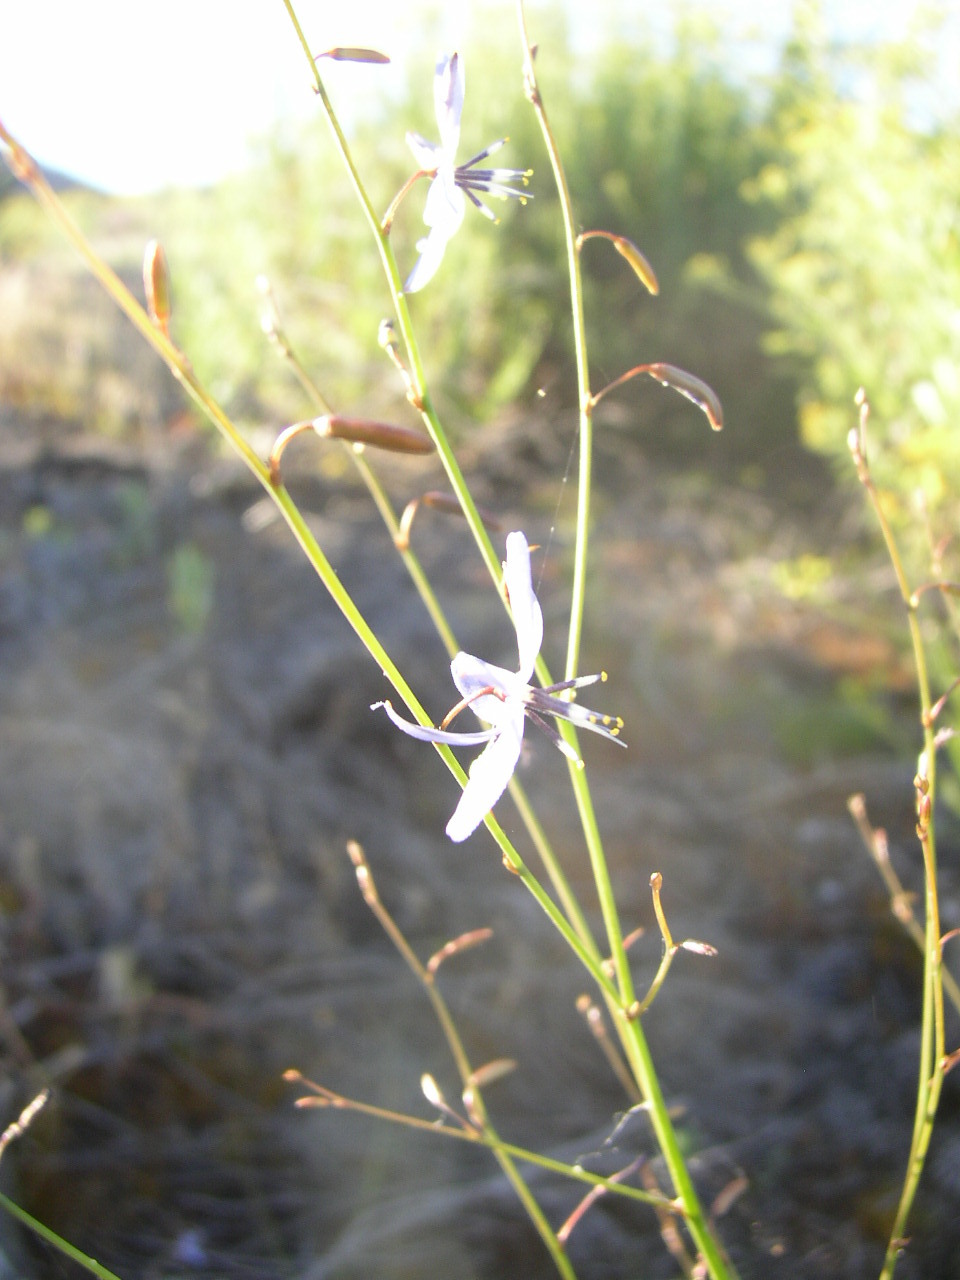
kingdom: Plantae
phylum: Tracheophyta
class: Liliopsida
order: Asparagales
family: Asphodelaceae
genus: Caesia
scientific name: Caesia contorta
